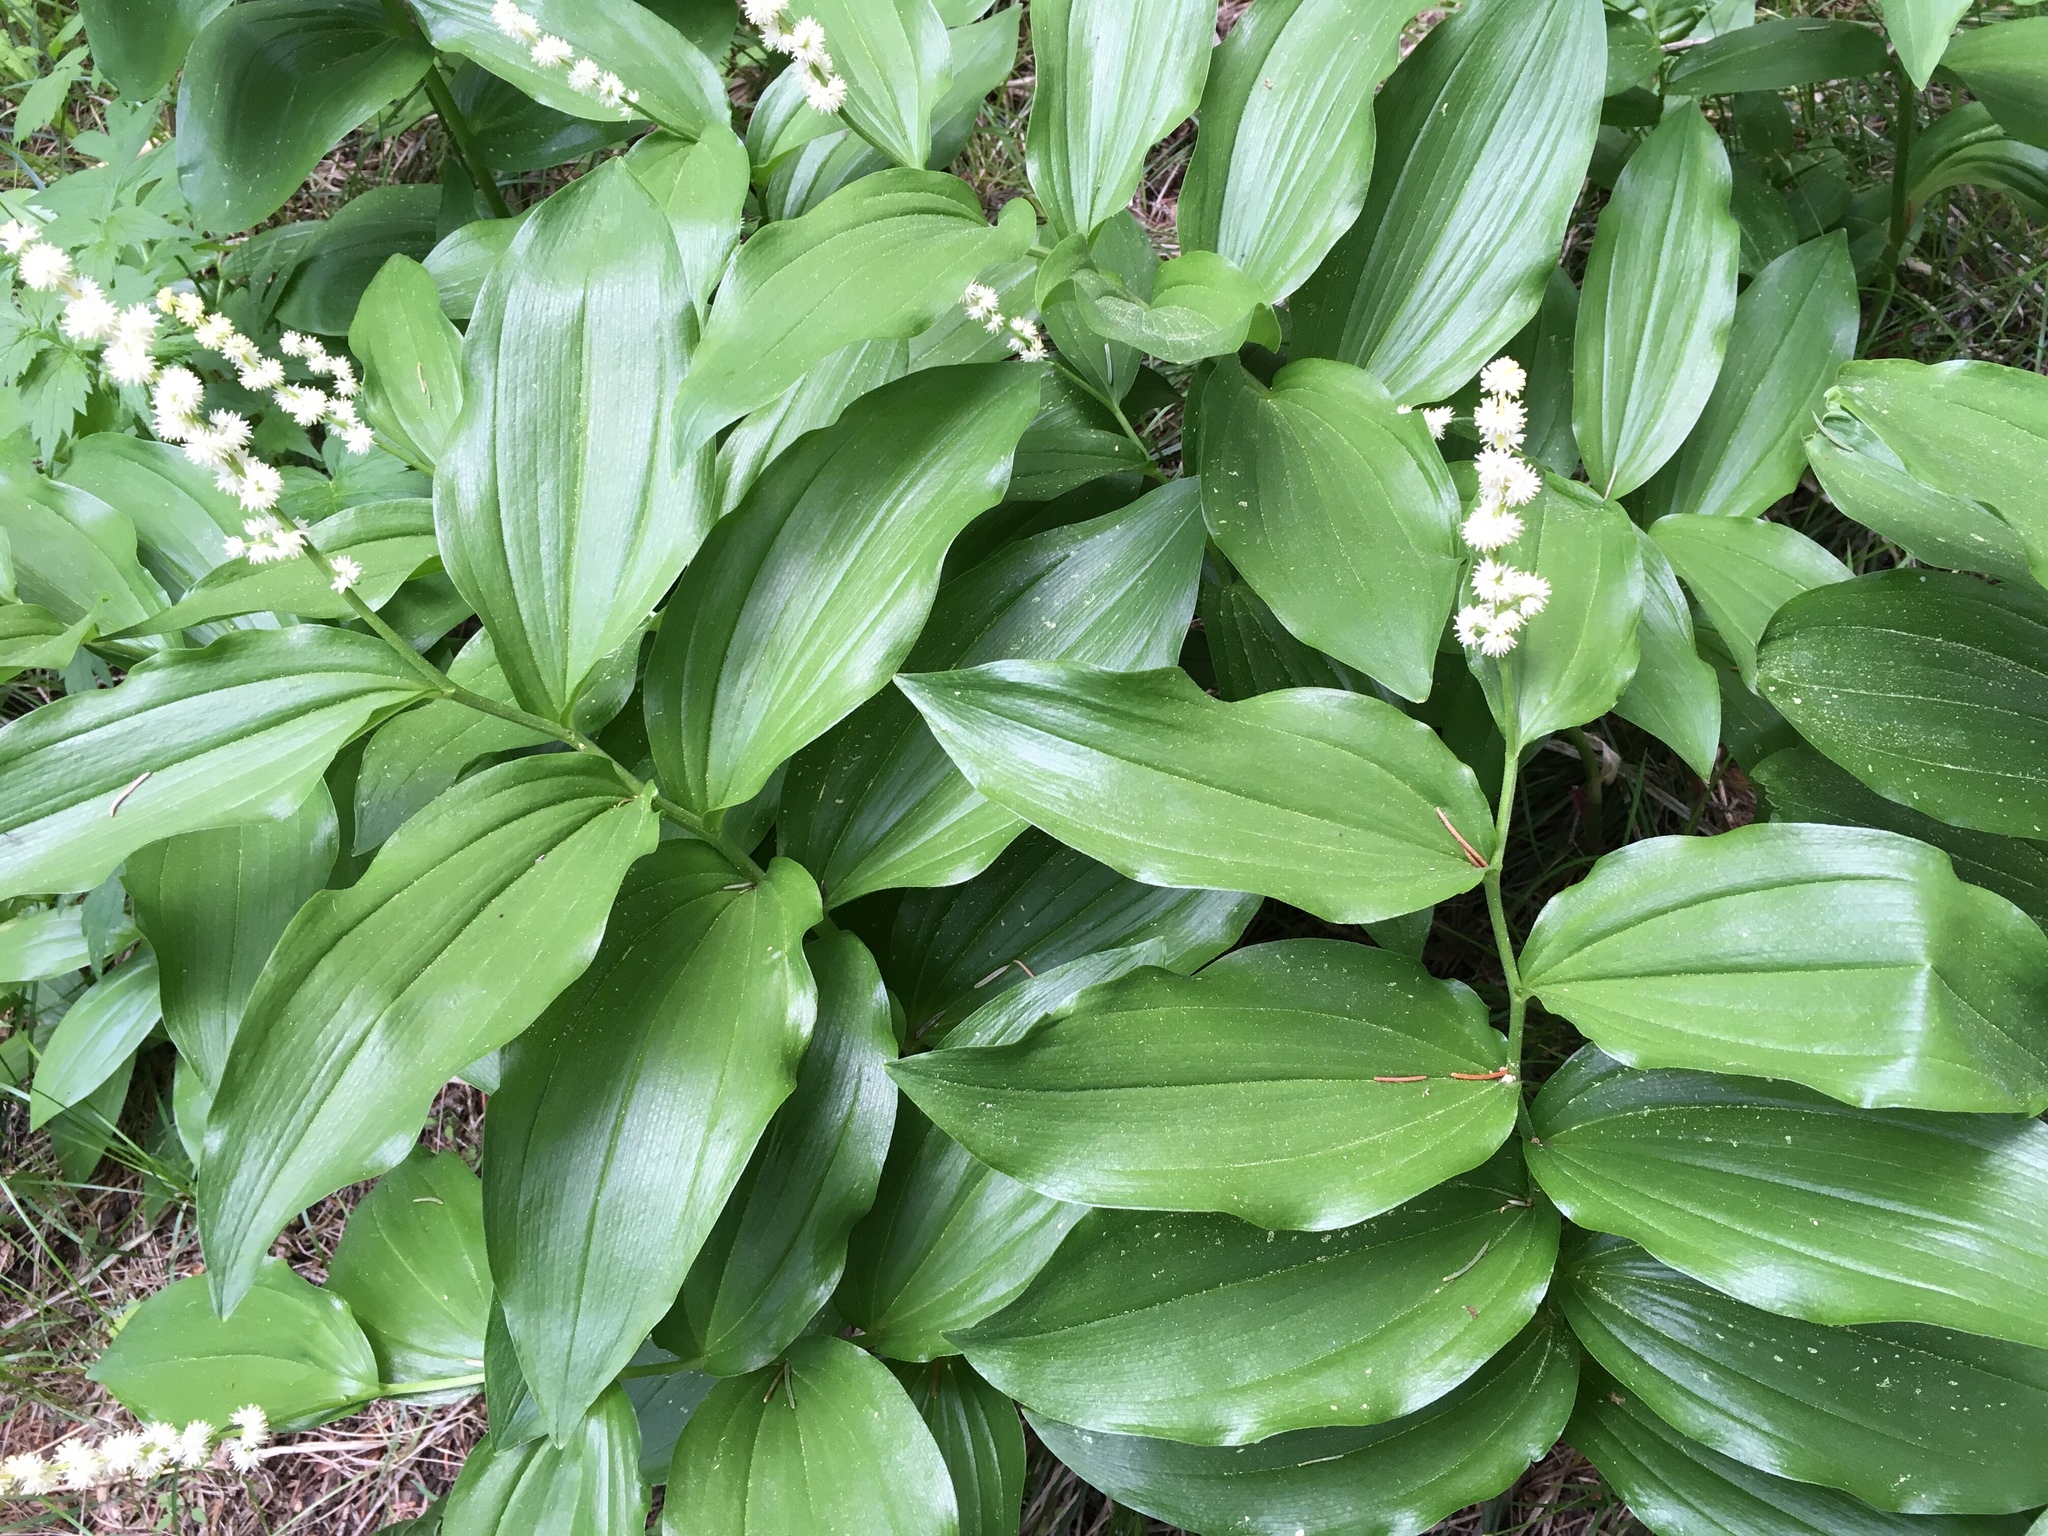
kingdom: Plantae
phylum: Tracheophyta
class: Liliopsida
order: Asparagales
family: Asparagaceae
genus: Maianthemum
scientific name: Maianthemum racemosum
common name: False spikenard
